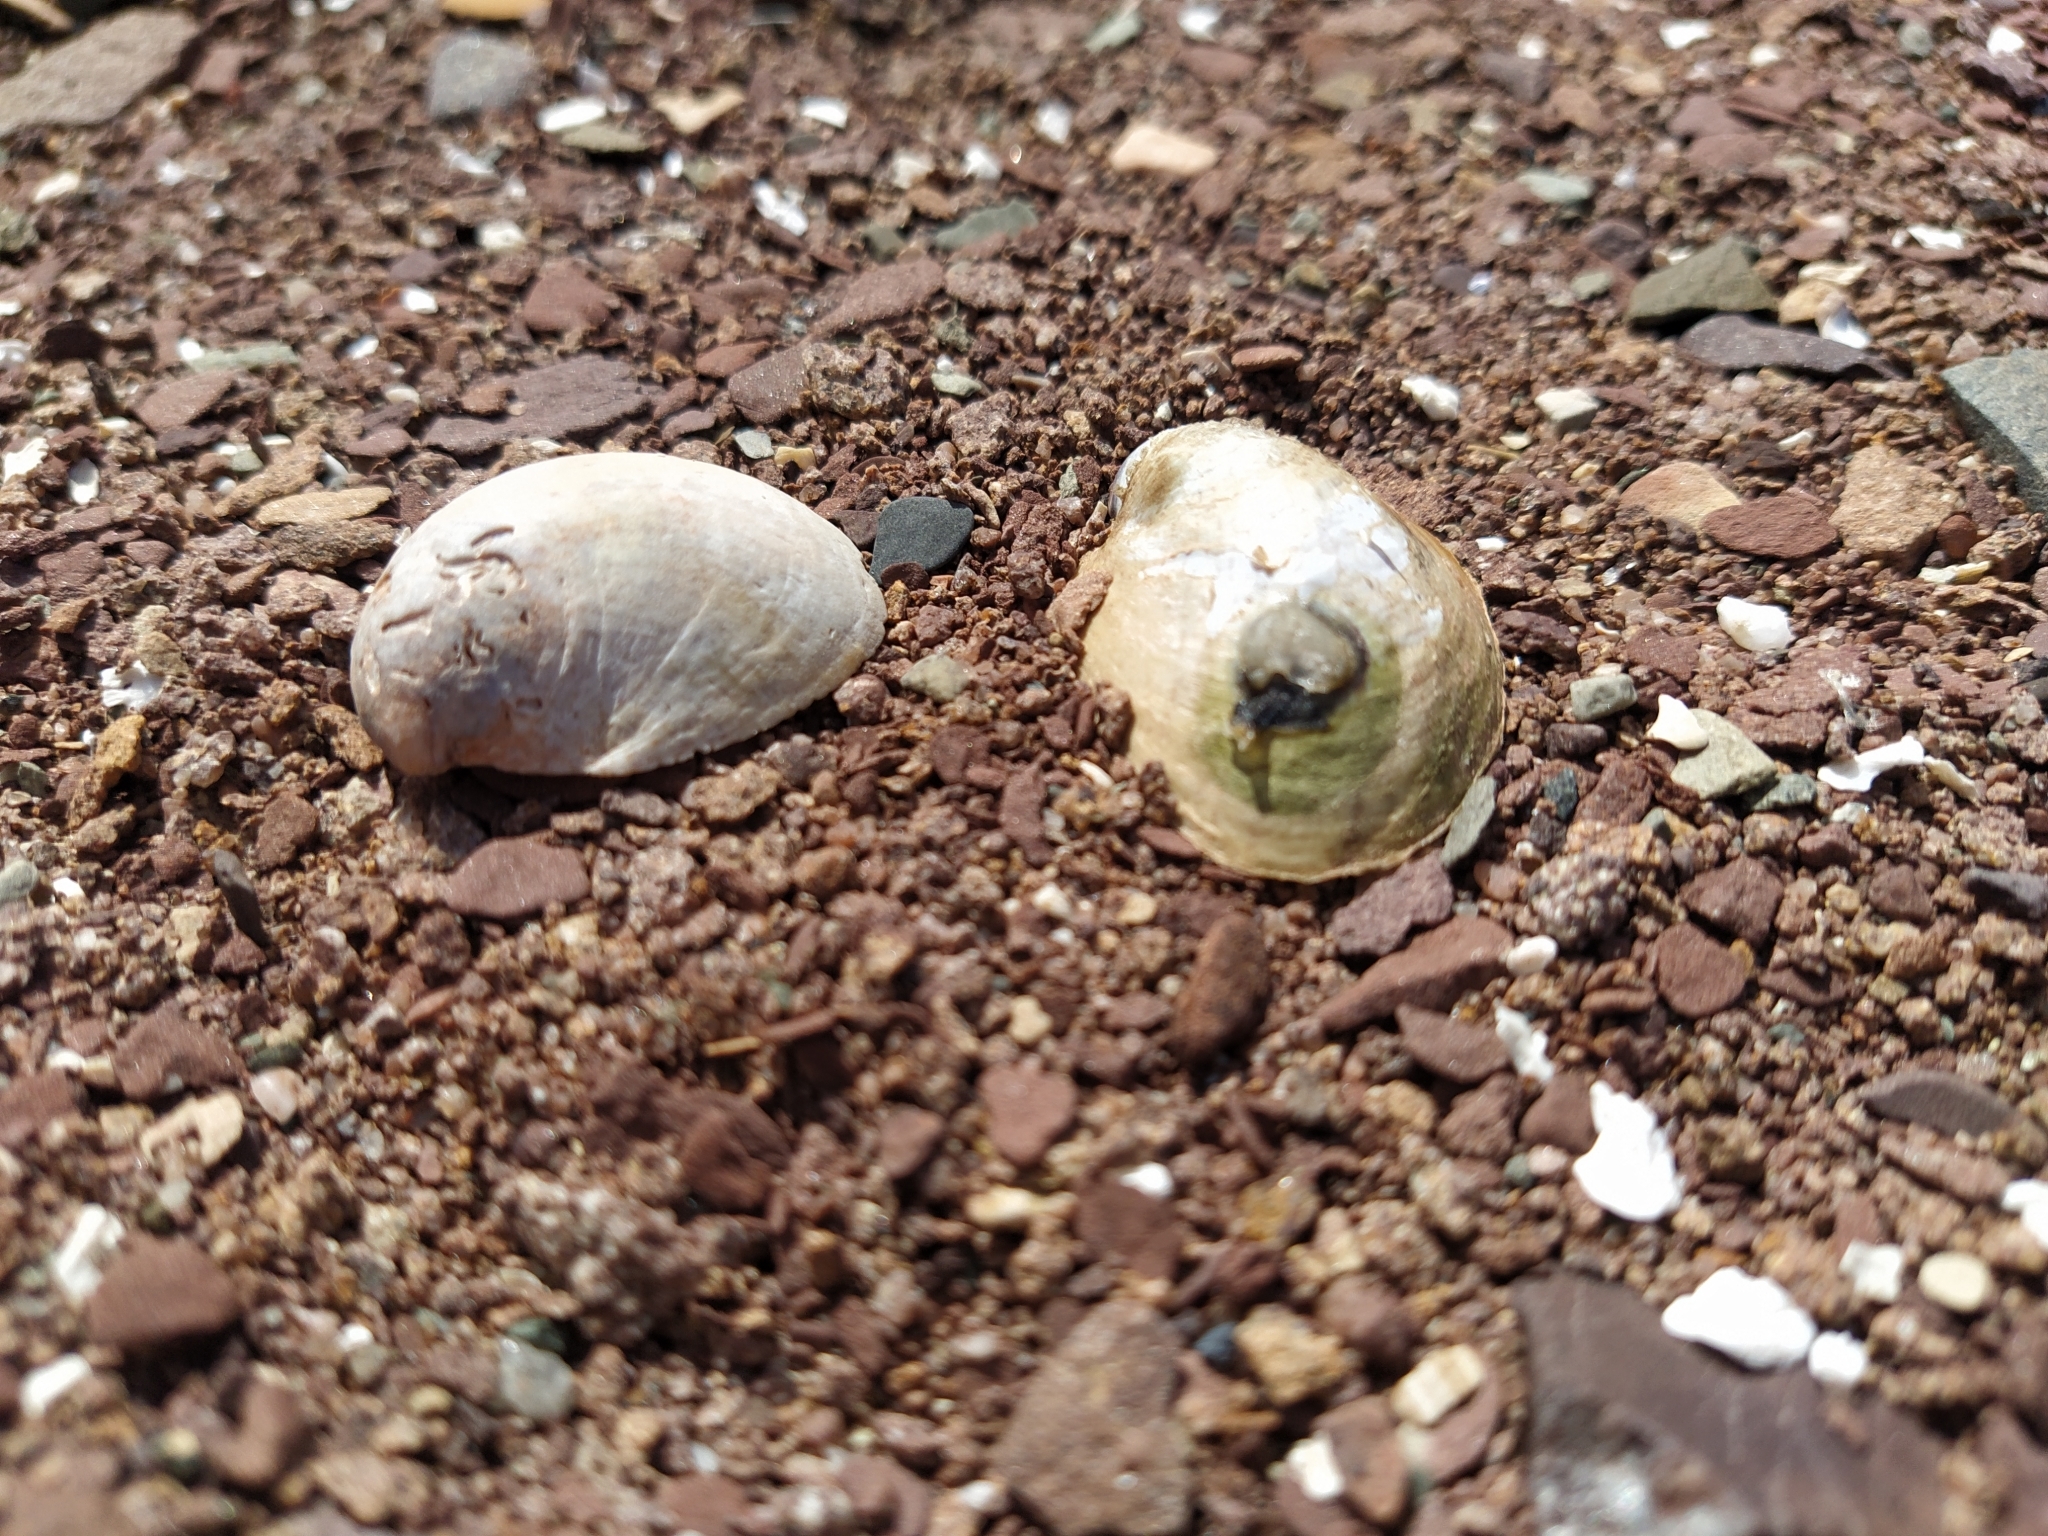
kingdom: Animalia
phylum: Mollusca
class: Gastropoda
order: Littorinimorpha
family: Calyptraeidae
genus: Crepidula
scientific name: Crepidula fornicata
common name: Slipper limpet
